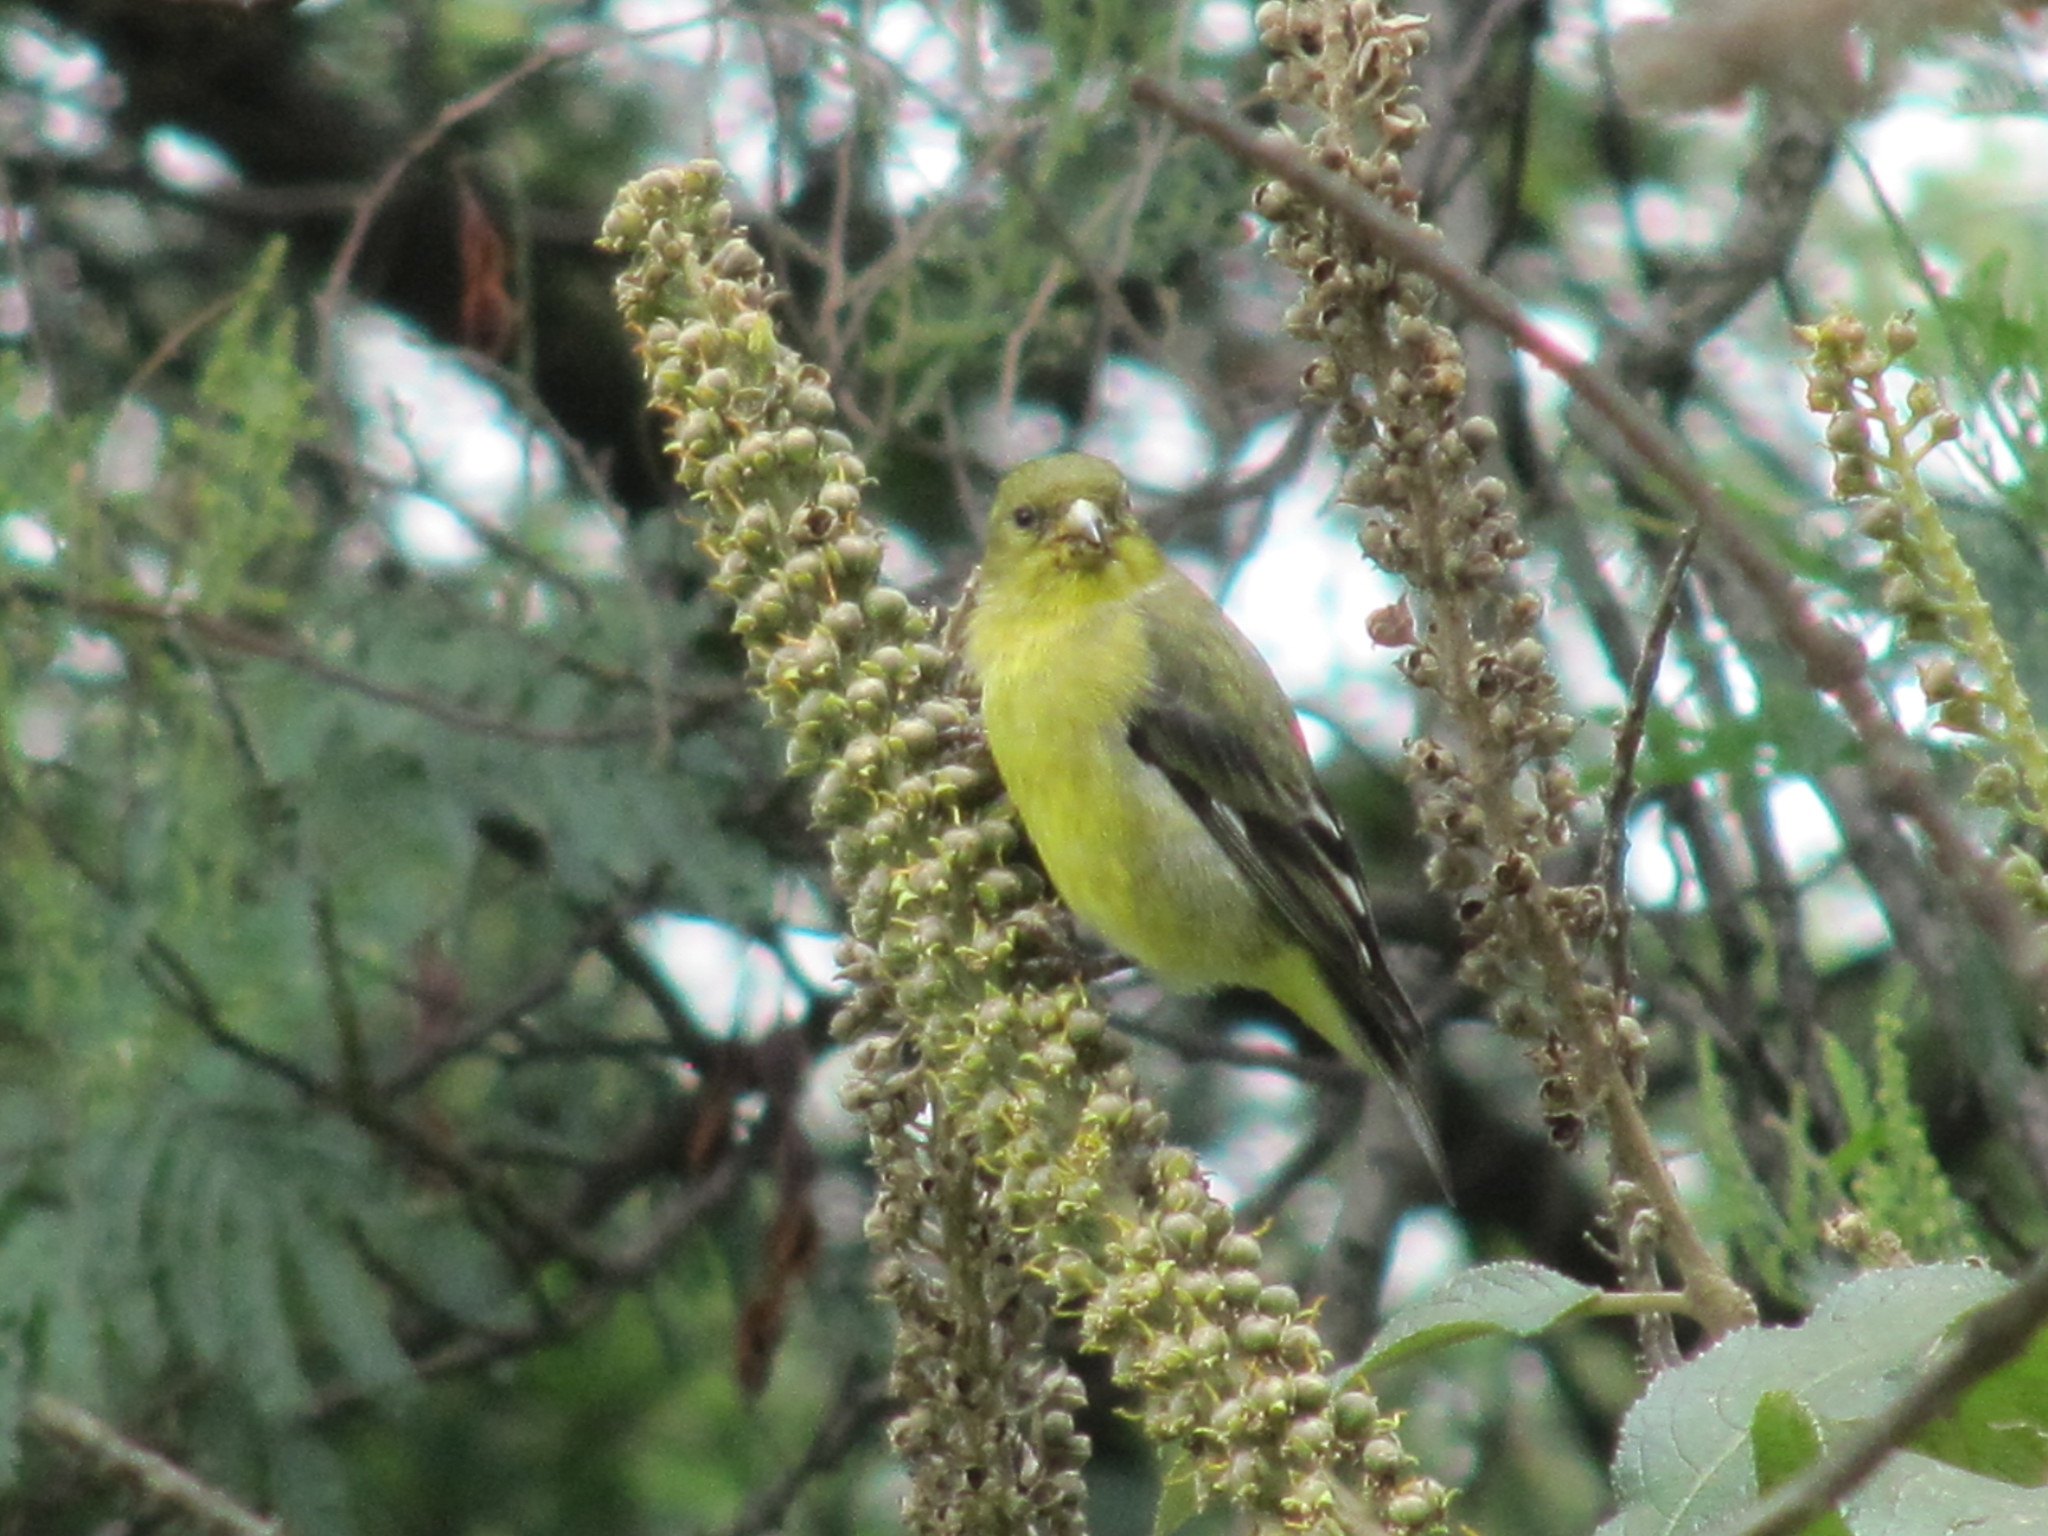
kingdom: Animalia
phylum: Chordata
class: Aves
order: Passeriformes
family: Fringillidae
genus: Spinus
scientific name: Spinus spinescens
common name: Andean siskin
